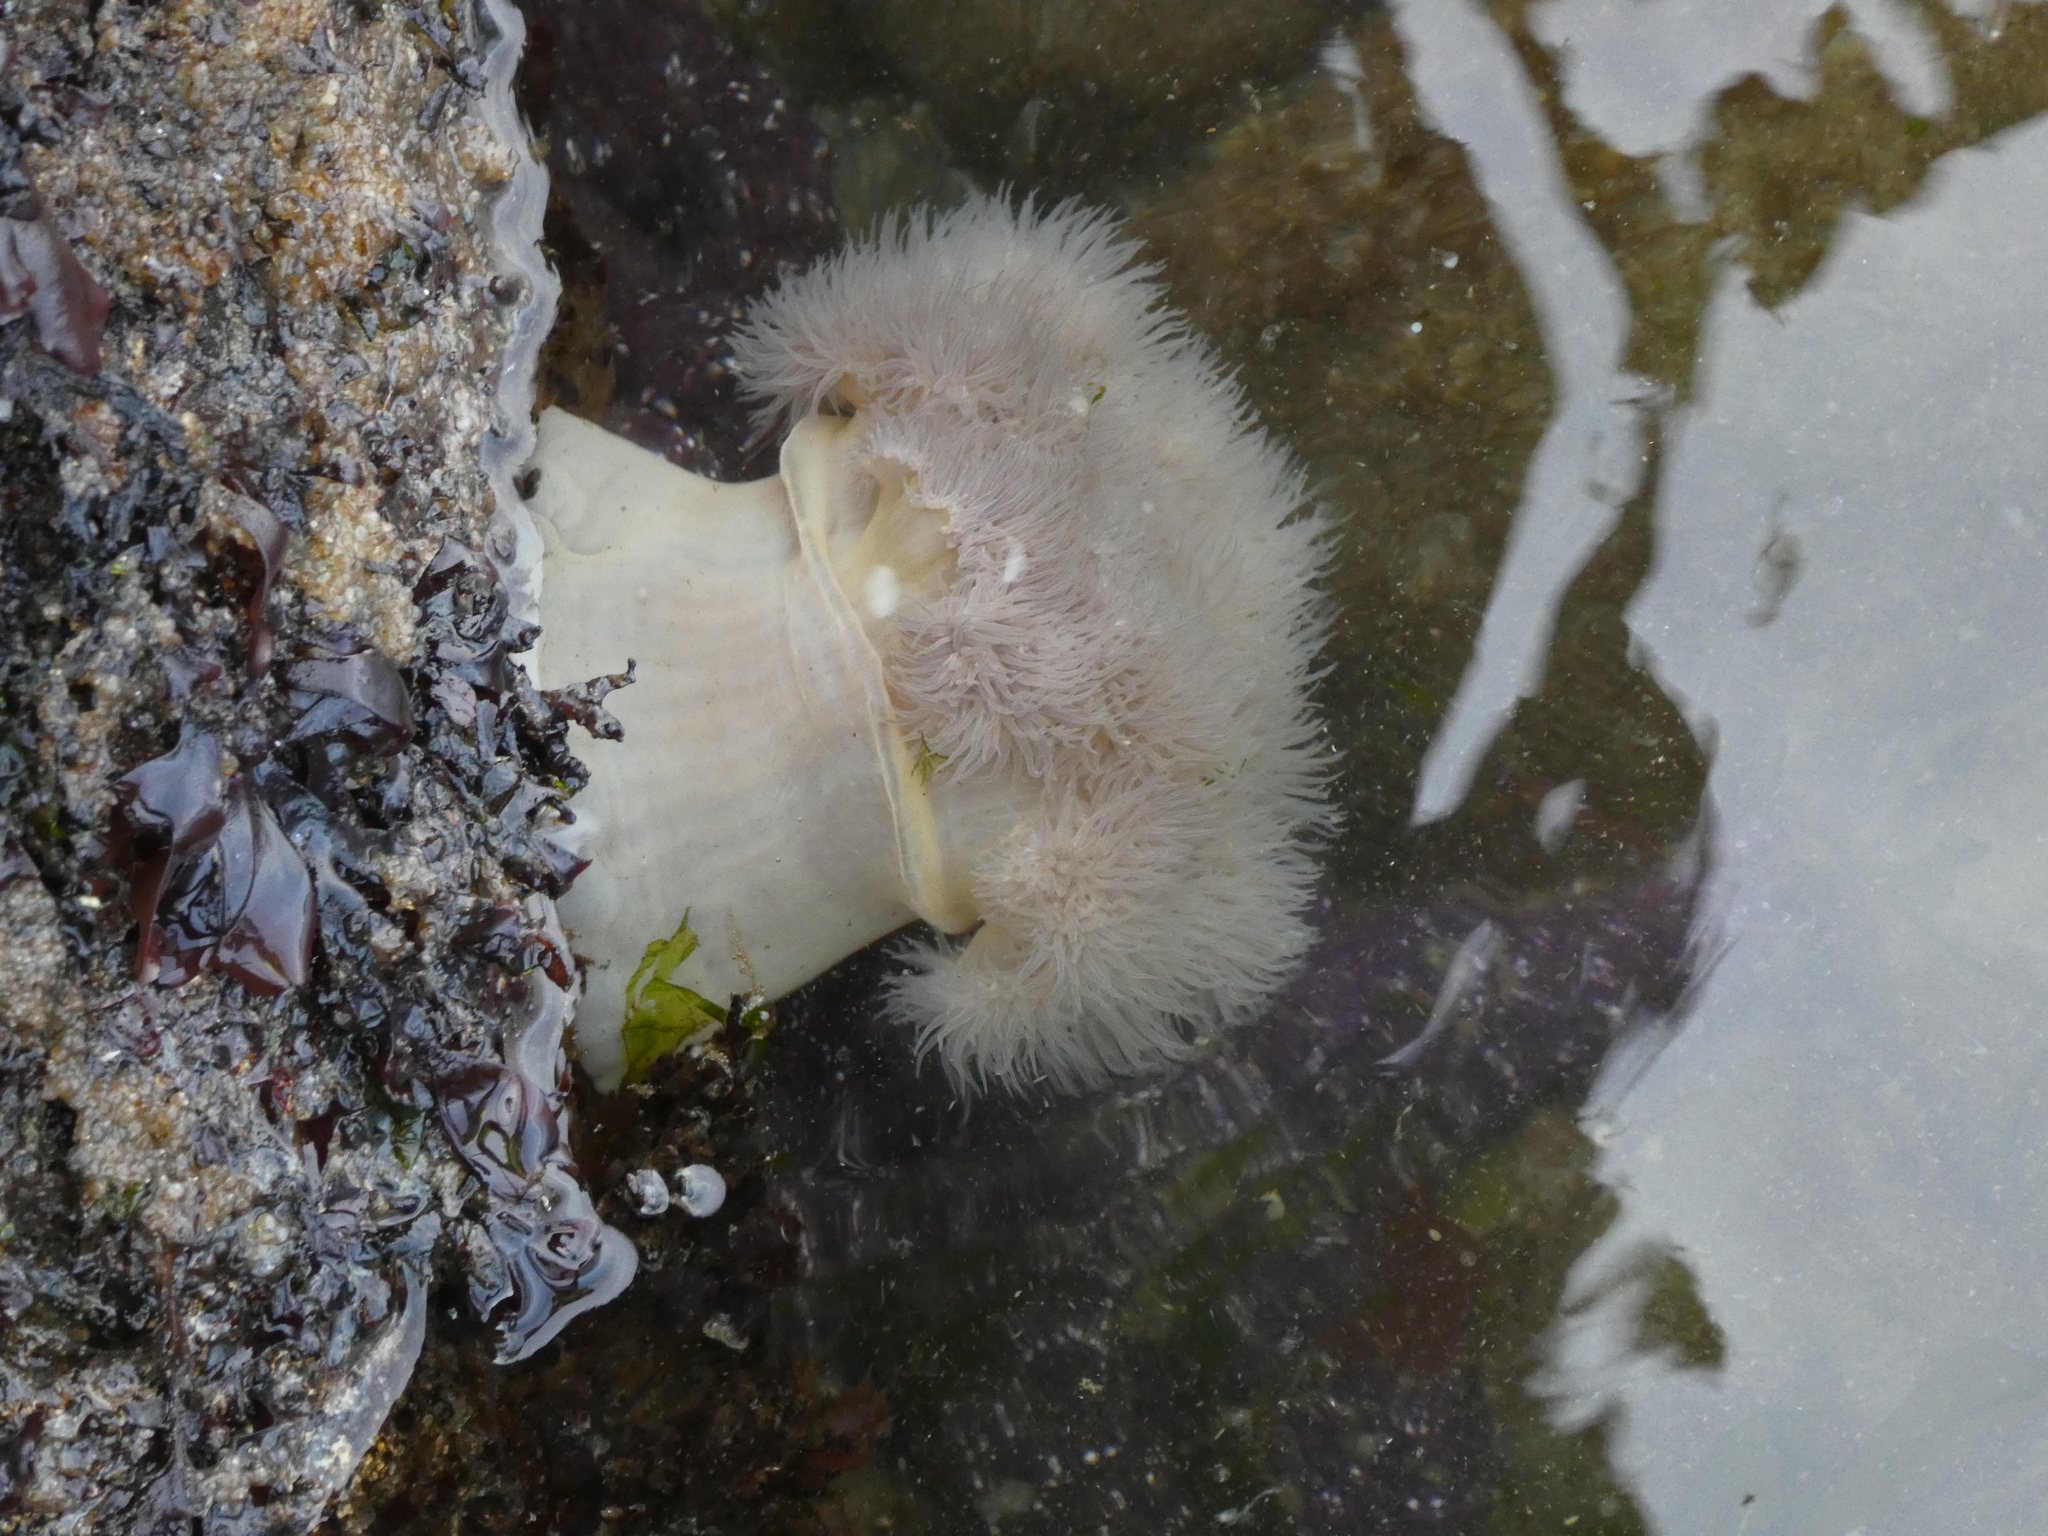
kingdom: Animalia
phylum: Cnidaria
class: Anthozoa
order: Actiniaria
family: Metridiidae
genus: Metridium
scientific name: Metridium senile
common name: Clonal plumose anemone
